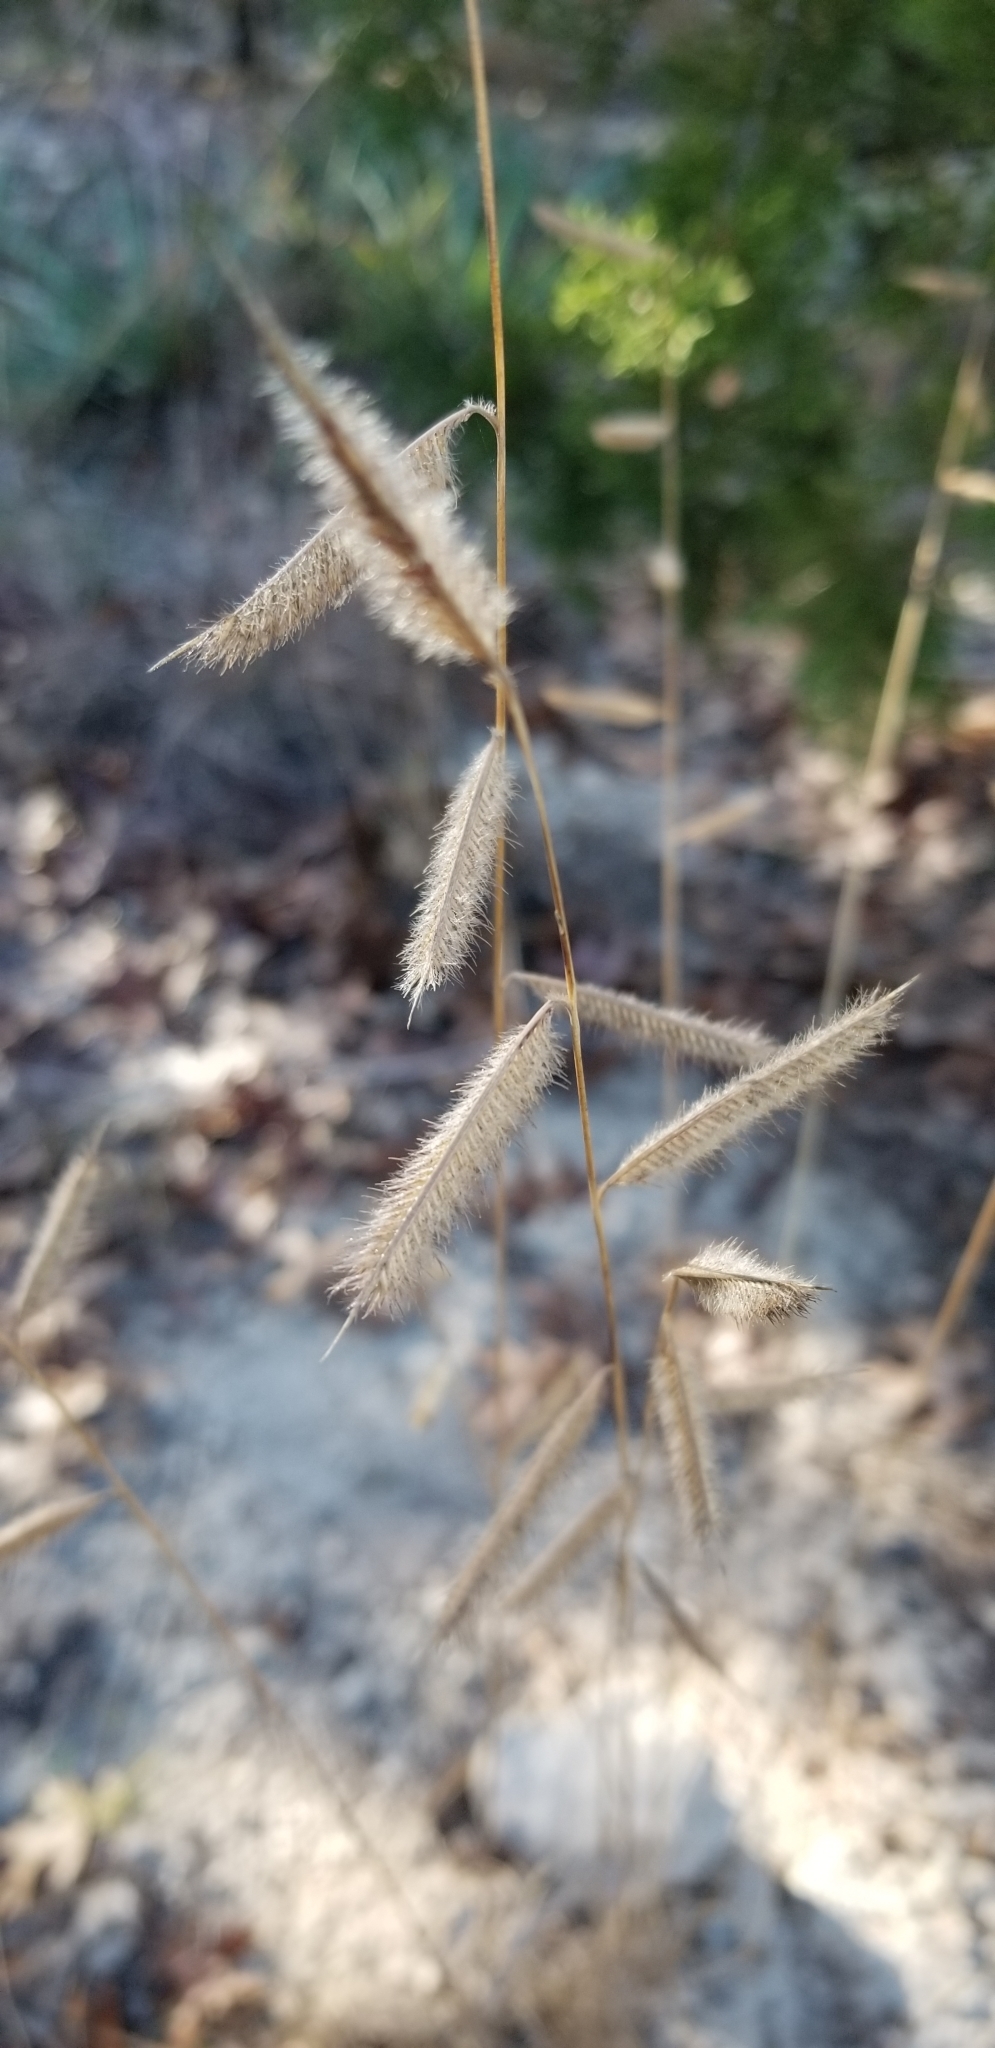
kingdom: Plantae
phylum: Tracheophyta
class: Liliopsida
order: Poales
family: Poaceae
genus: Bouteloua
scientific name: Bouteloua hirsuta
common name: Hairy grama
